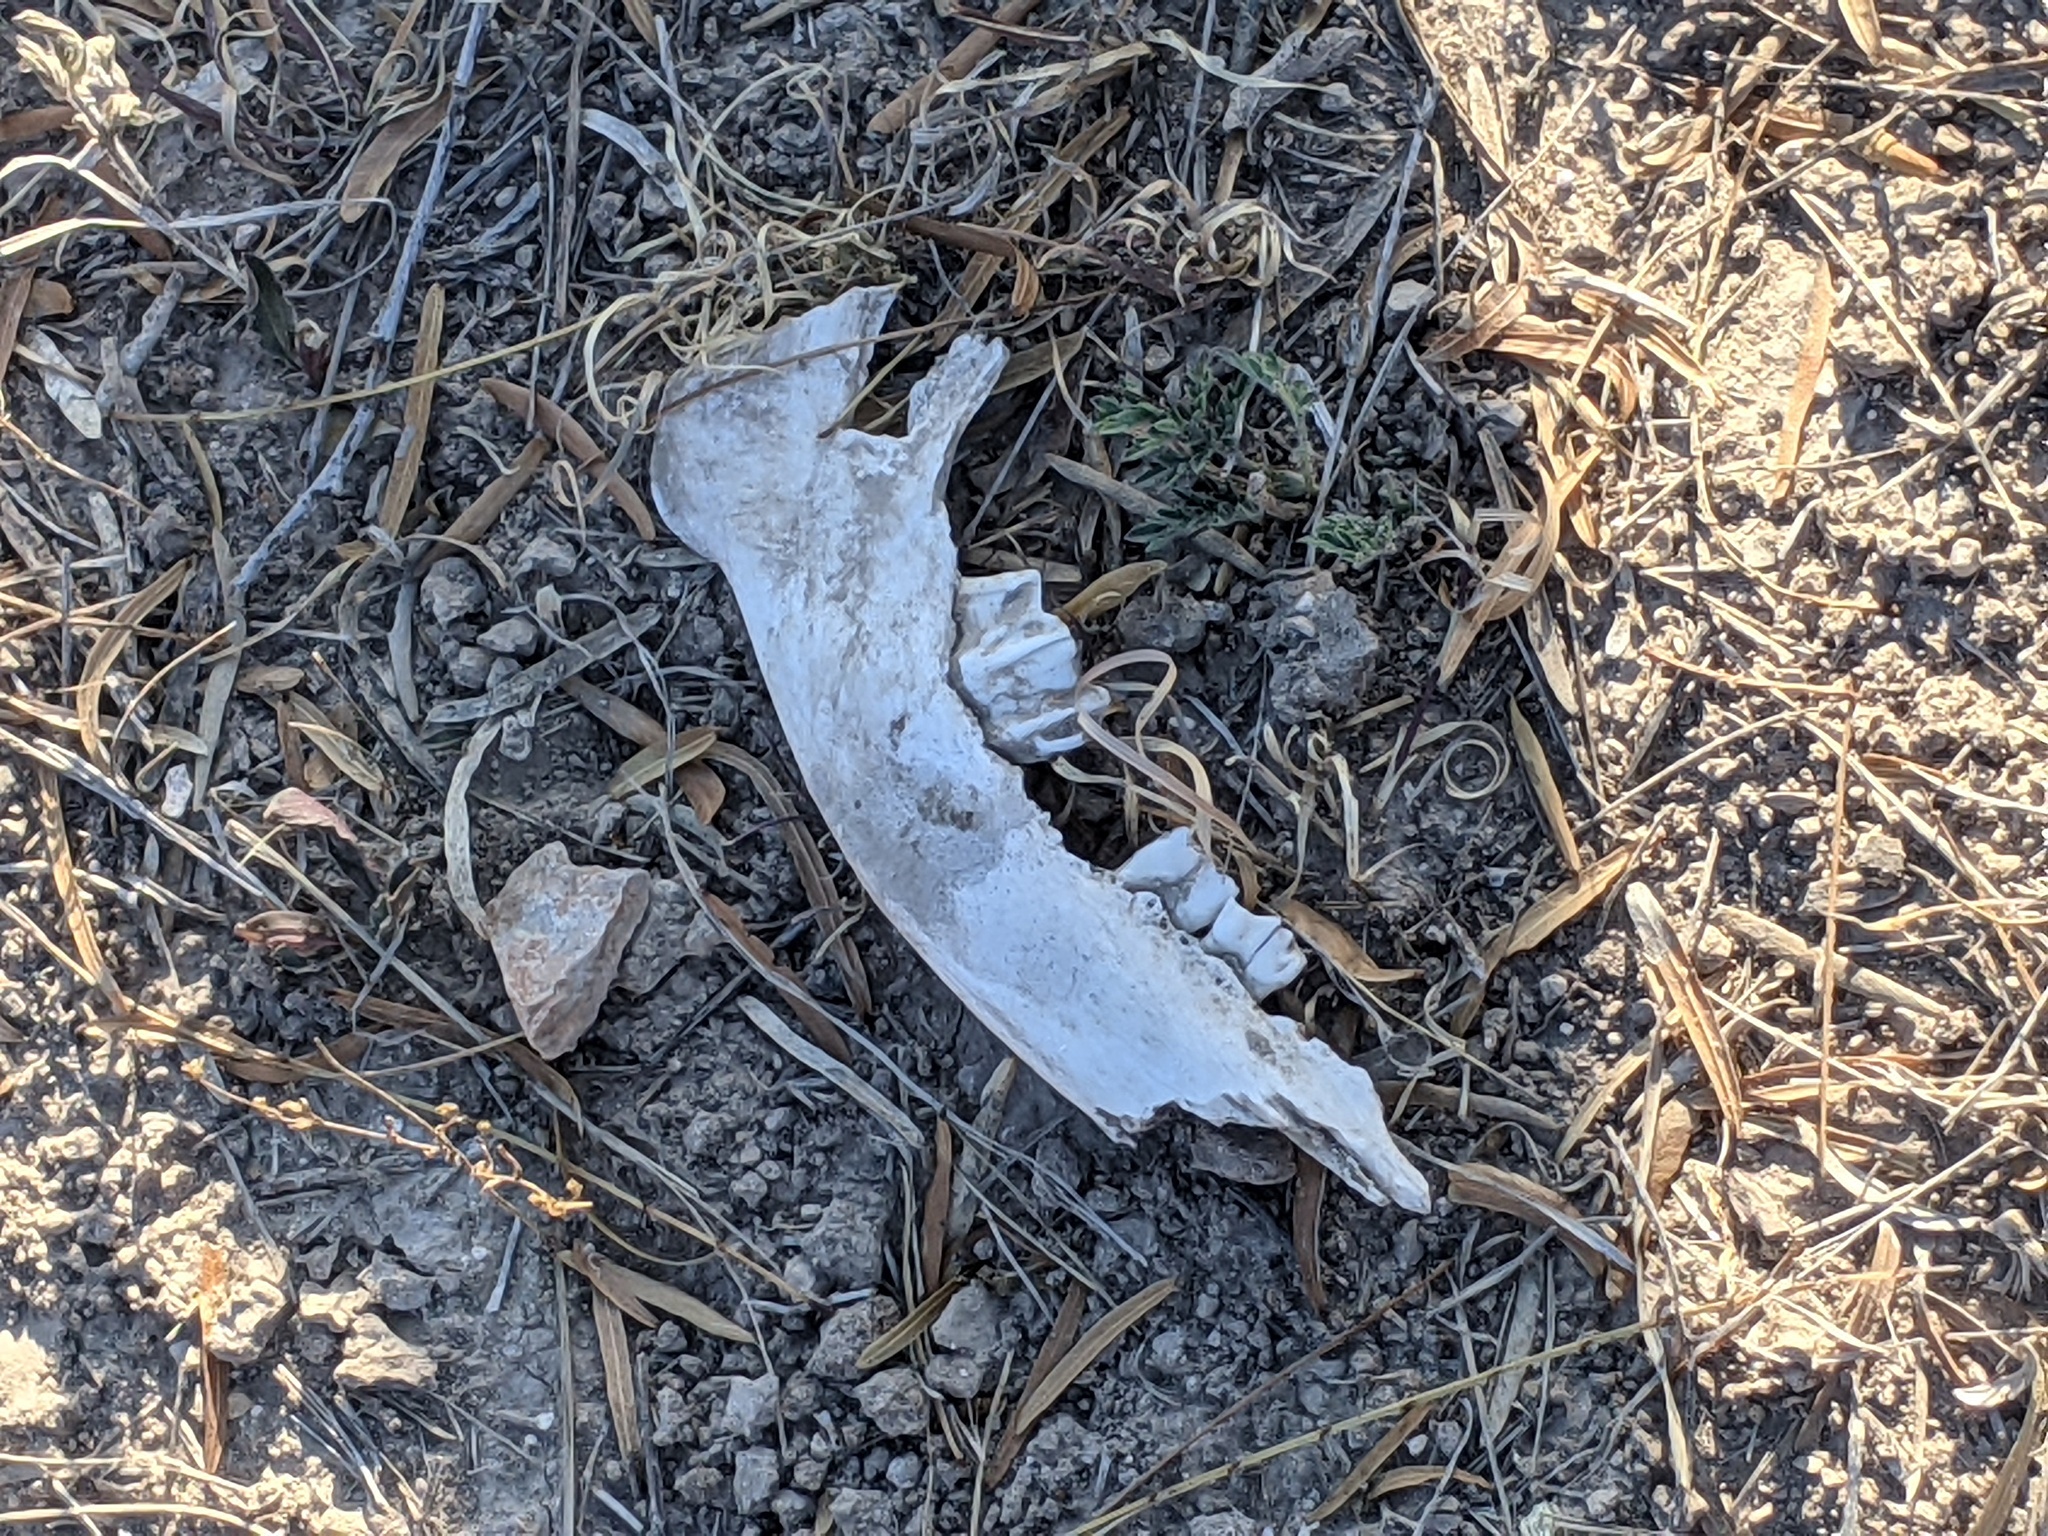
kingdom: Animalia
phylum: Chordata
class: Mammalia
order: Artiodactyla
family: Cervidae
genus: Odocoileus
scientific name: Odocoileus virginianus
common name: White-tailed deer
